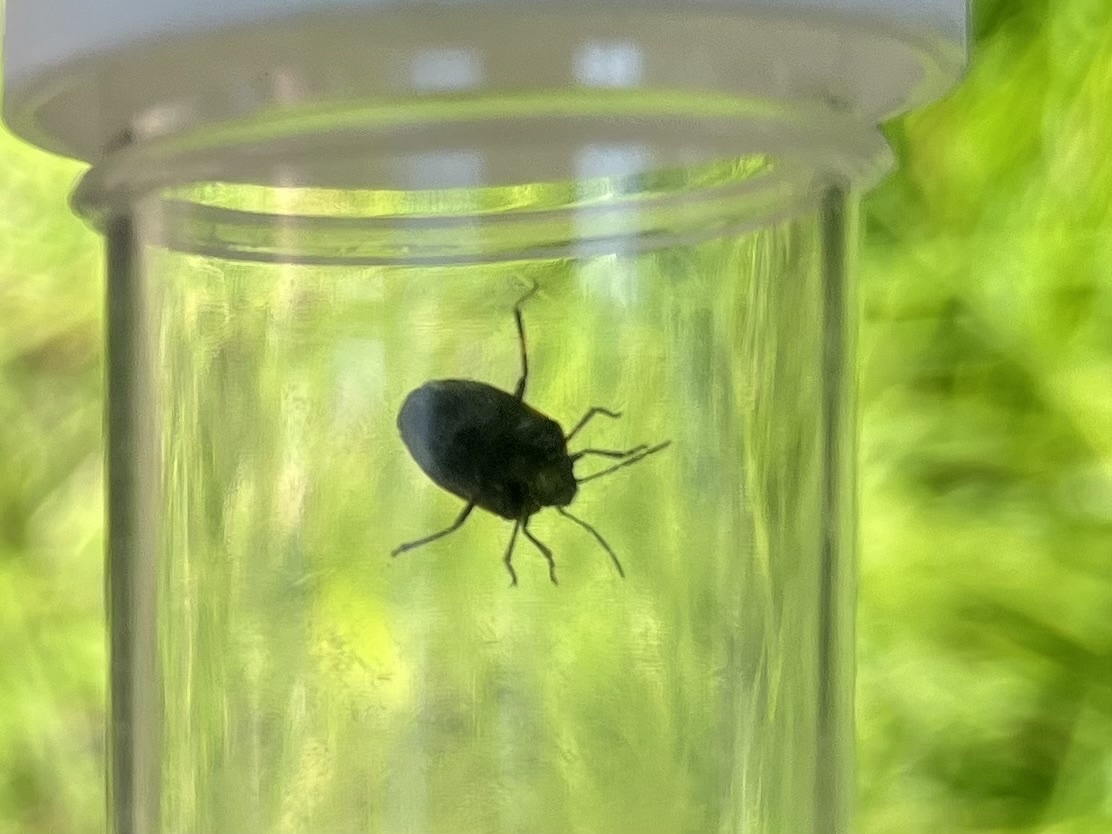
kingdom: Animalia
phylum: Arthropoda
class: Insecta
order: Hemiptera
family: Pentatomidae
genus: Eurydema
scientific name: Eurydema oleracea
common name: Cabbage bug
